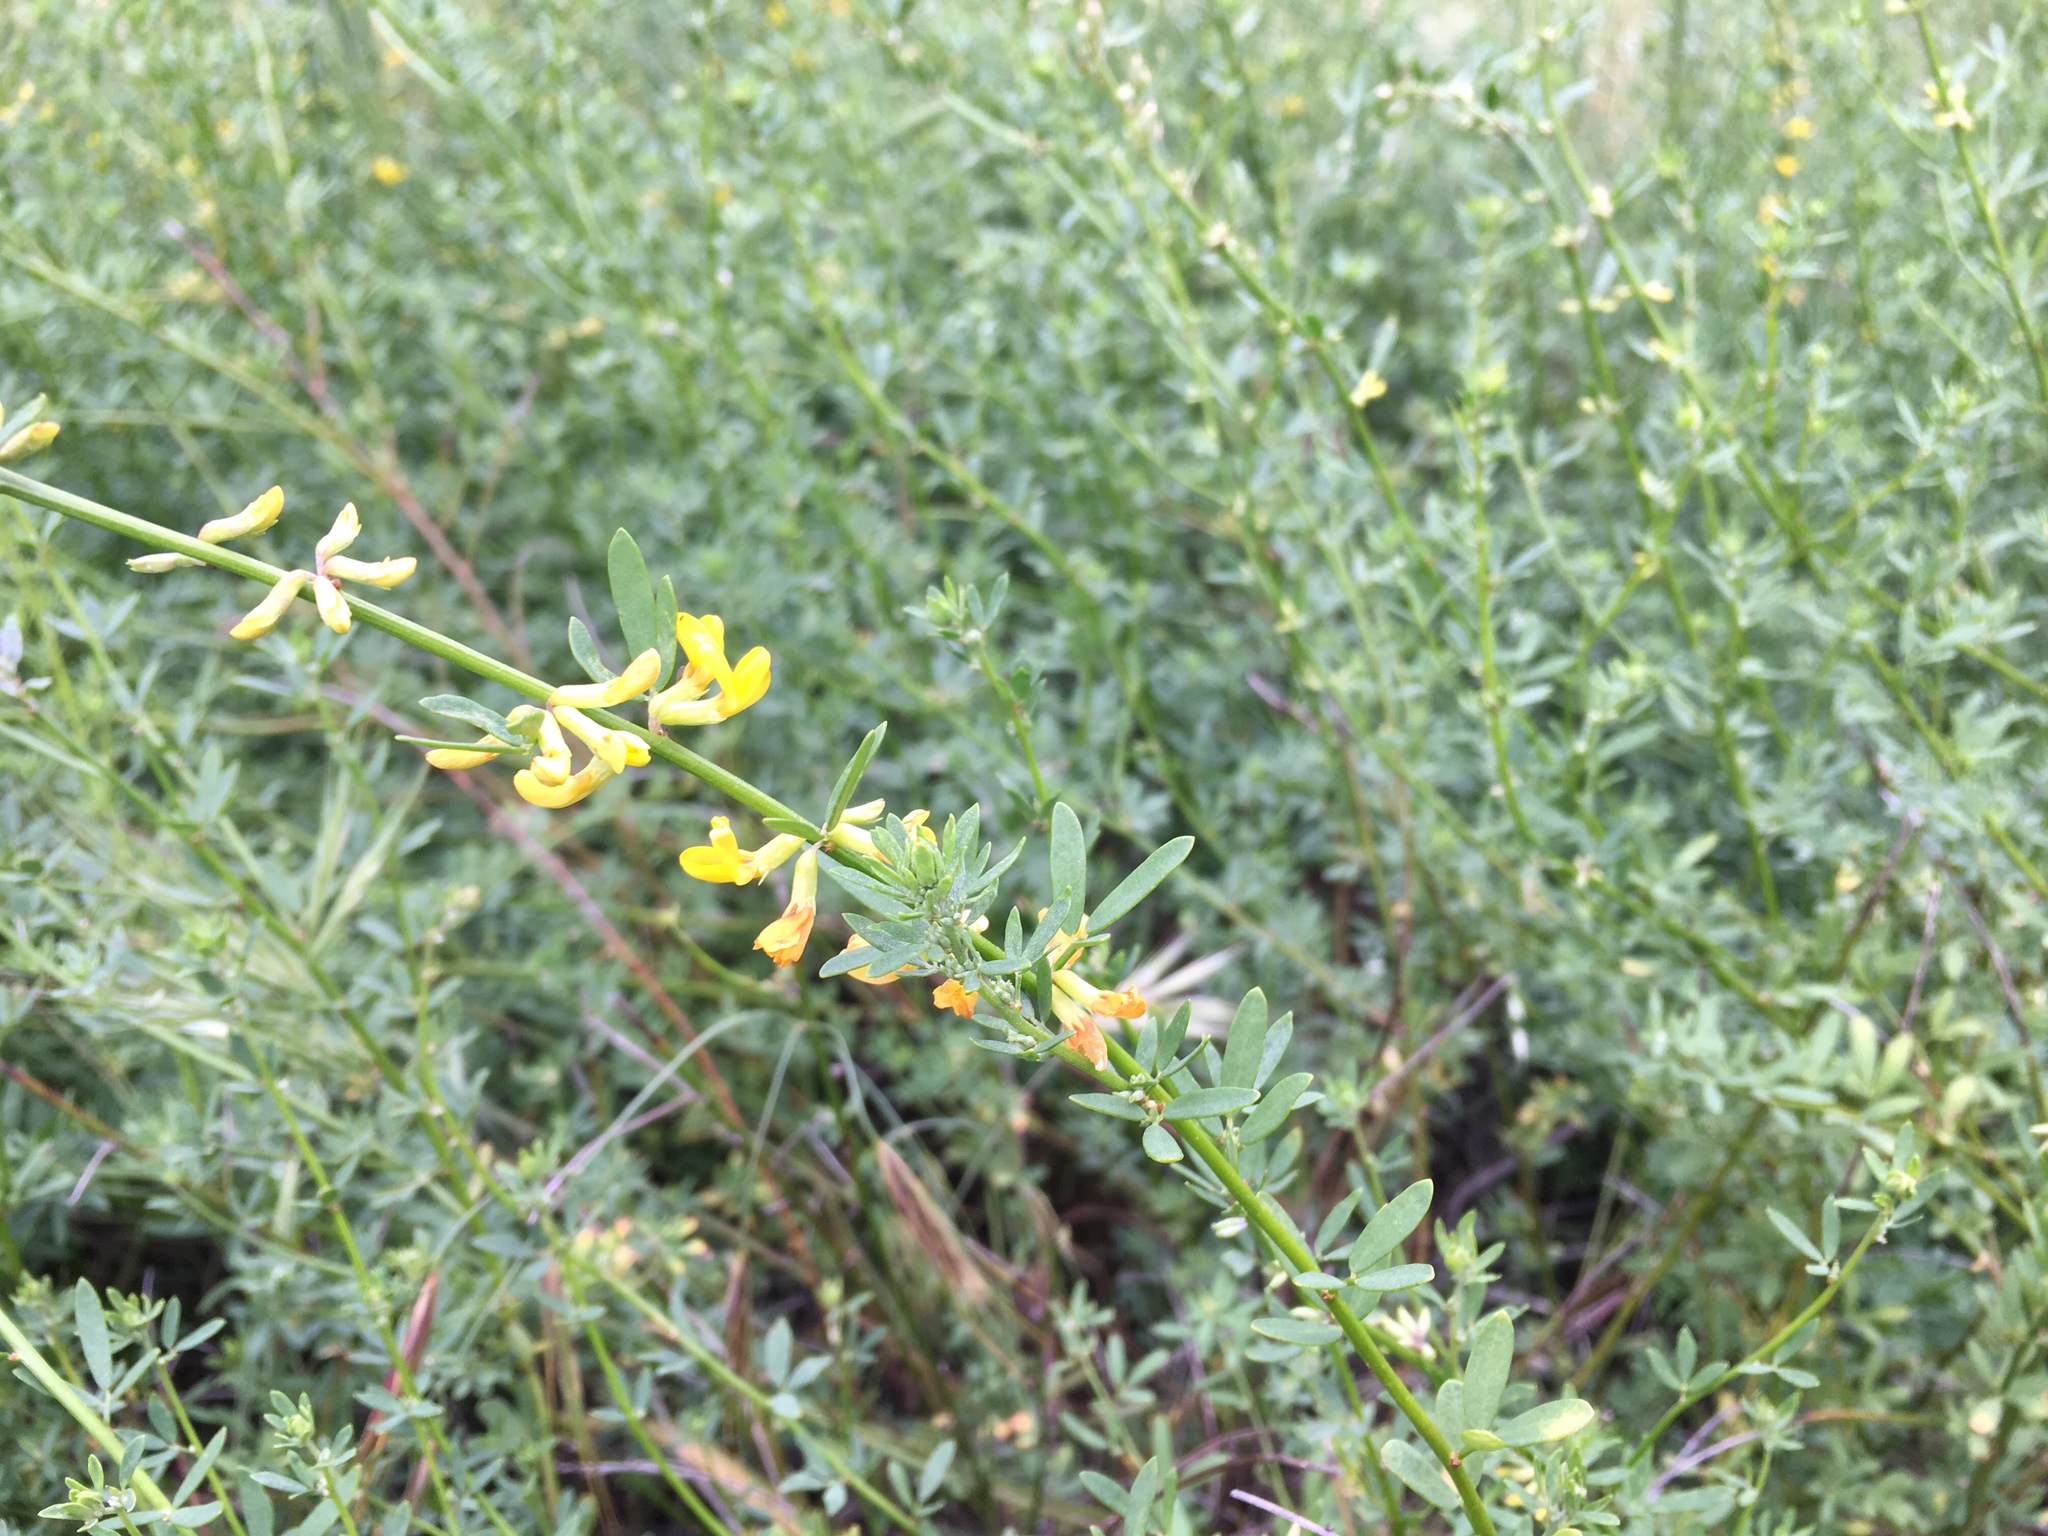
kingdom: Plantae
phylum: Tracheophyta
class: Magnoliopsida
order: Fabales
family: Fabaceae
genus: Acmispon
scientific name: Acmispon glaber
